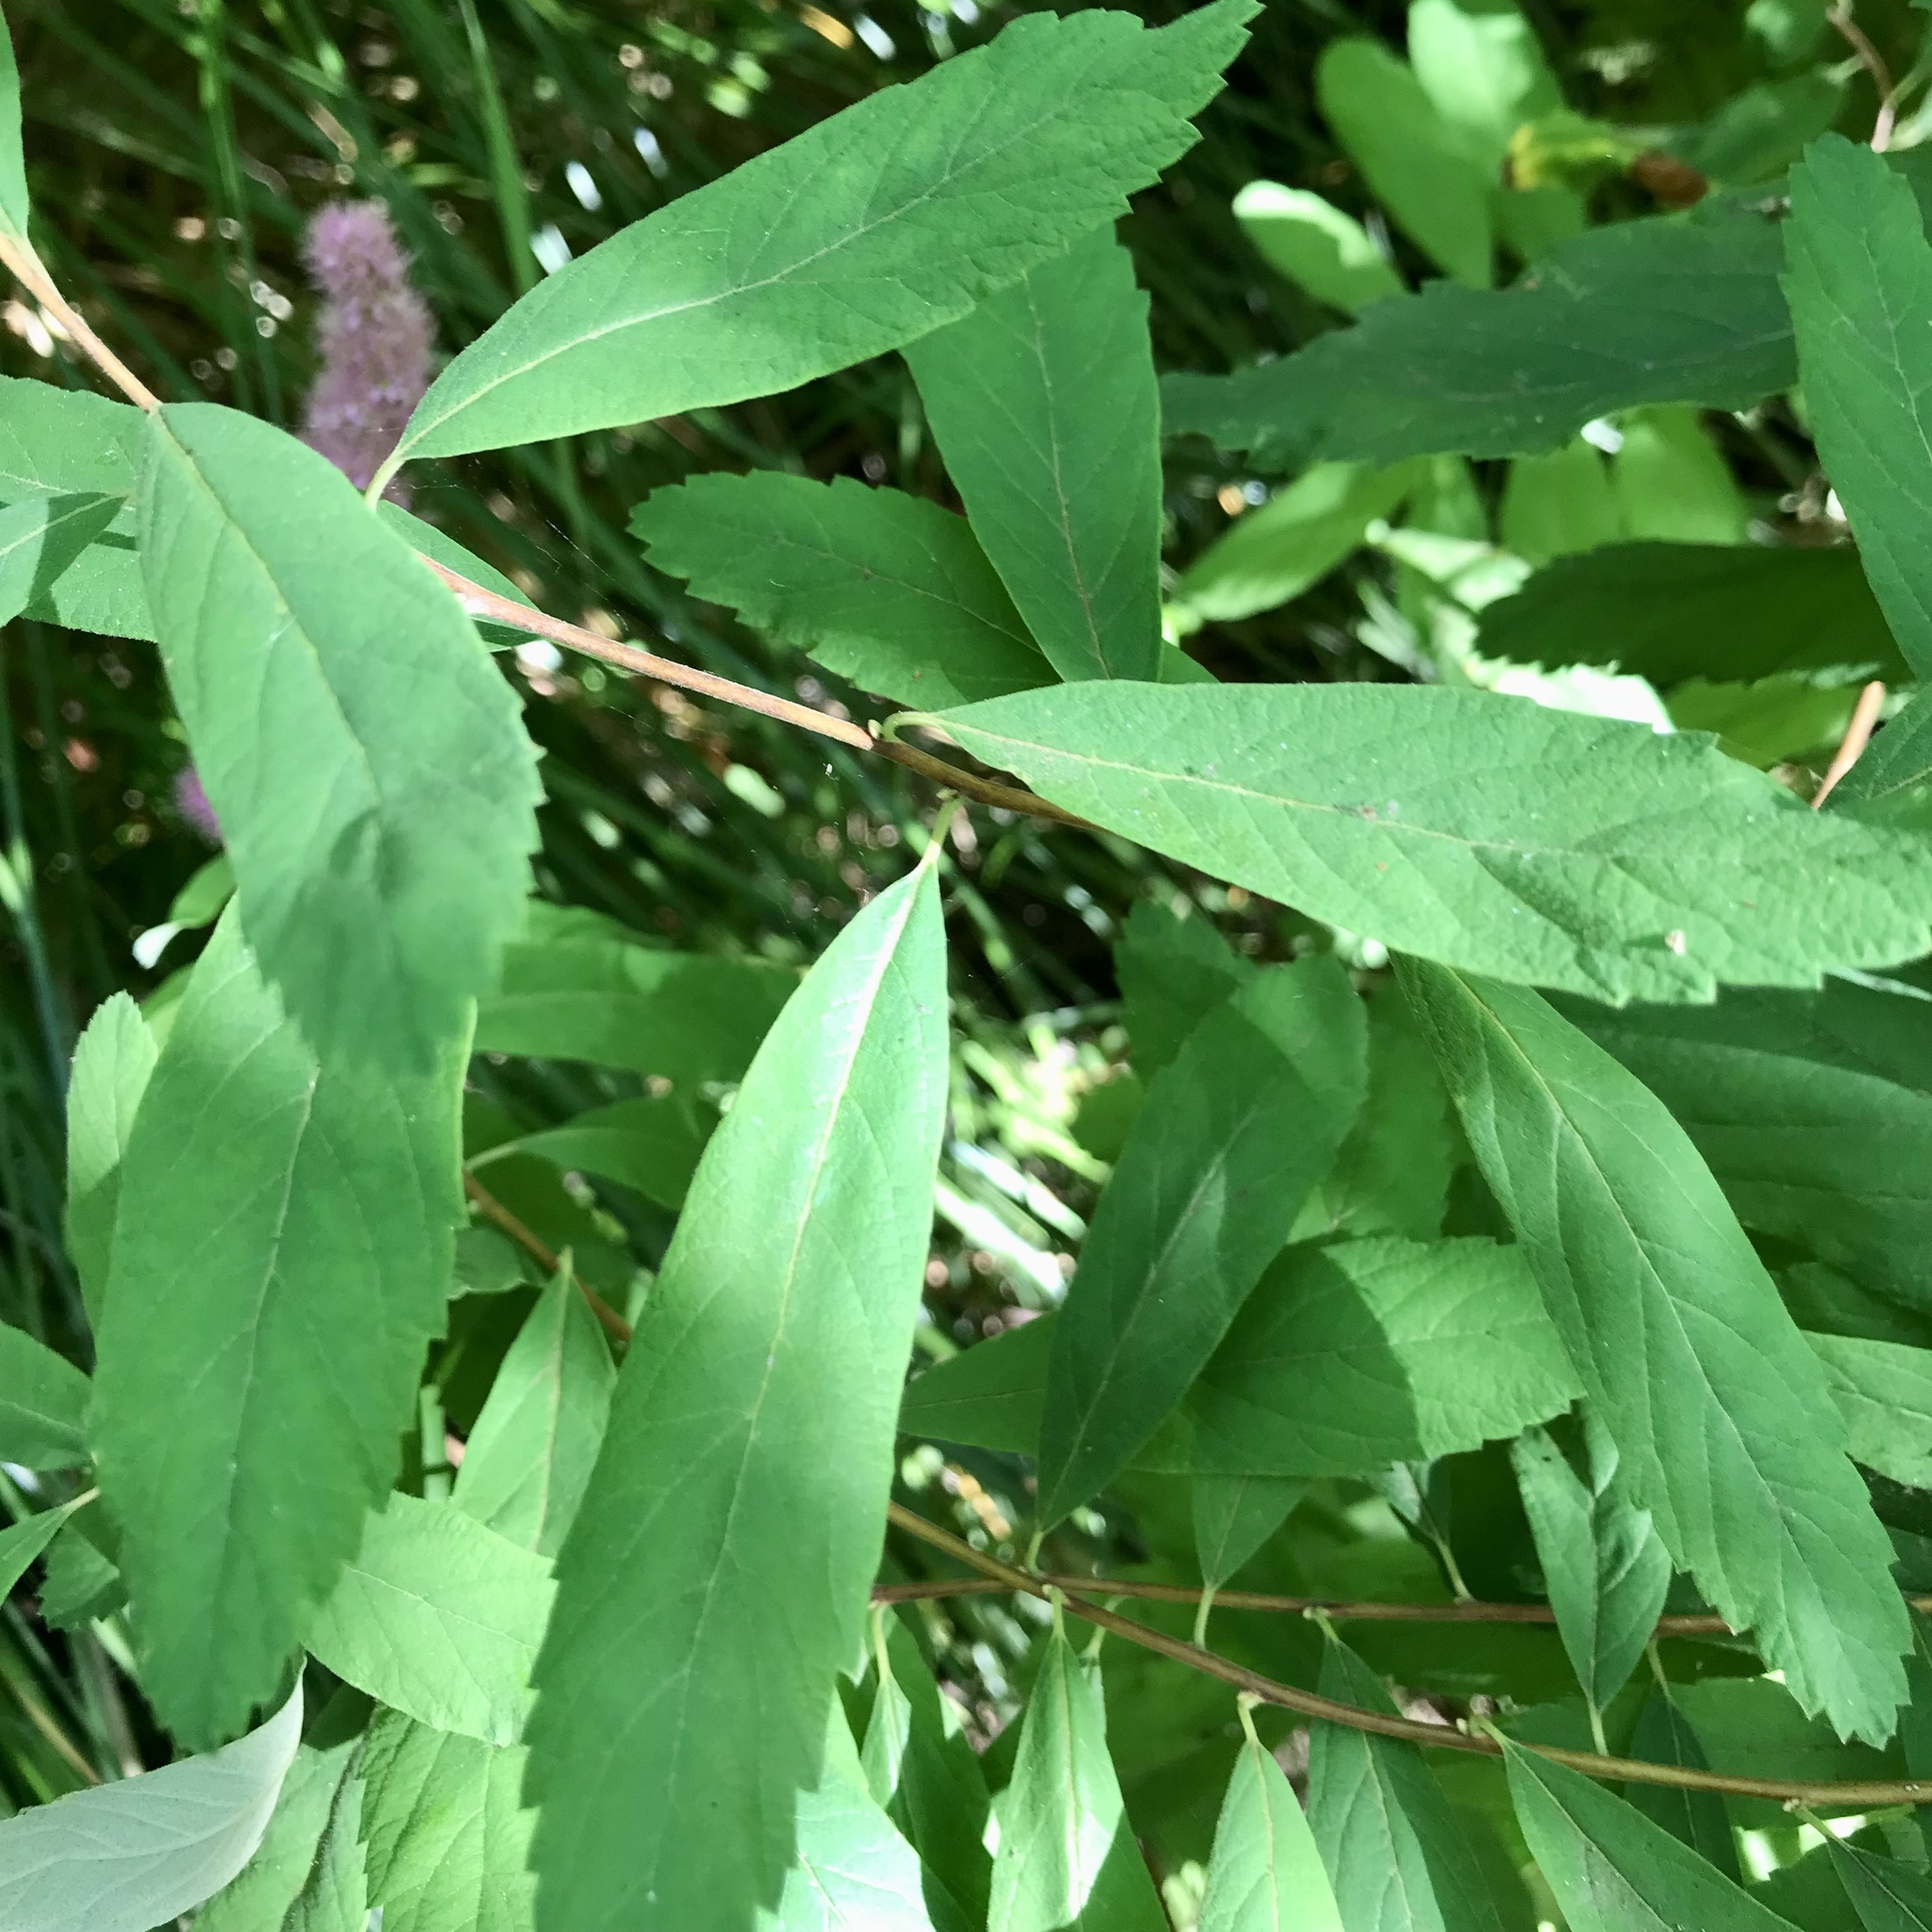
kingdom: Plantae
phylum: Tracheophyta
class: Magnoliopsida
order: Rosales
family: Rosaceae
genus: Spiraea
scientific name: Spiraea douglasii
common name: Steeplebush
